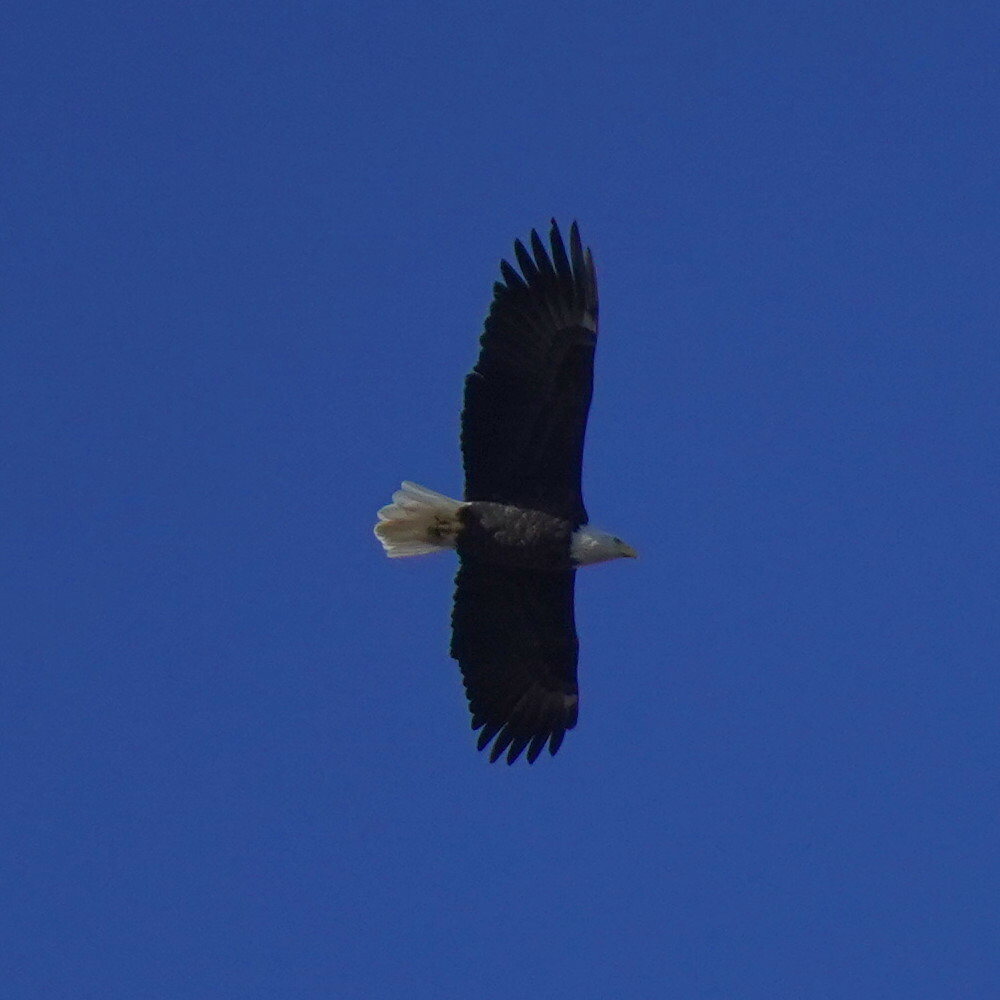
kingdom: Animalia
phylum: Chordata
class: Aves
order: Accipitriformes
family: Accipitridae
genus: Haliaeetus
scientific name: Haliaeetus leucocephalus
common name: Bald eagle
